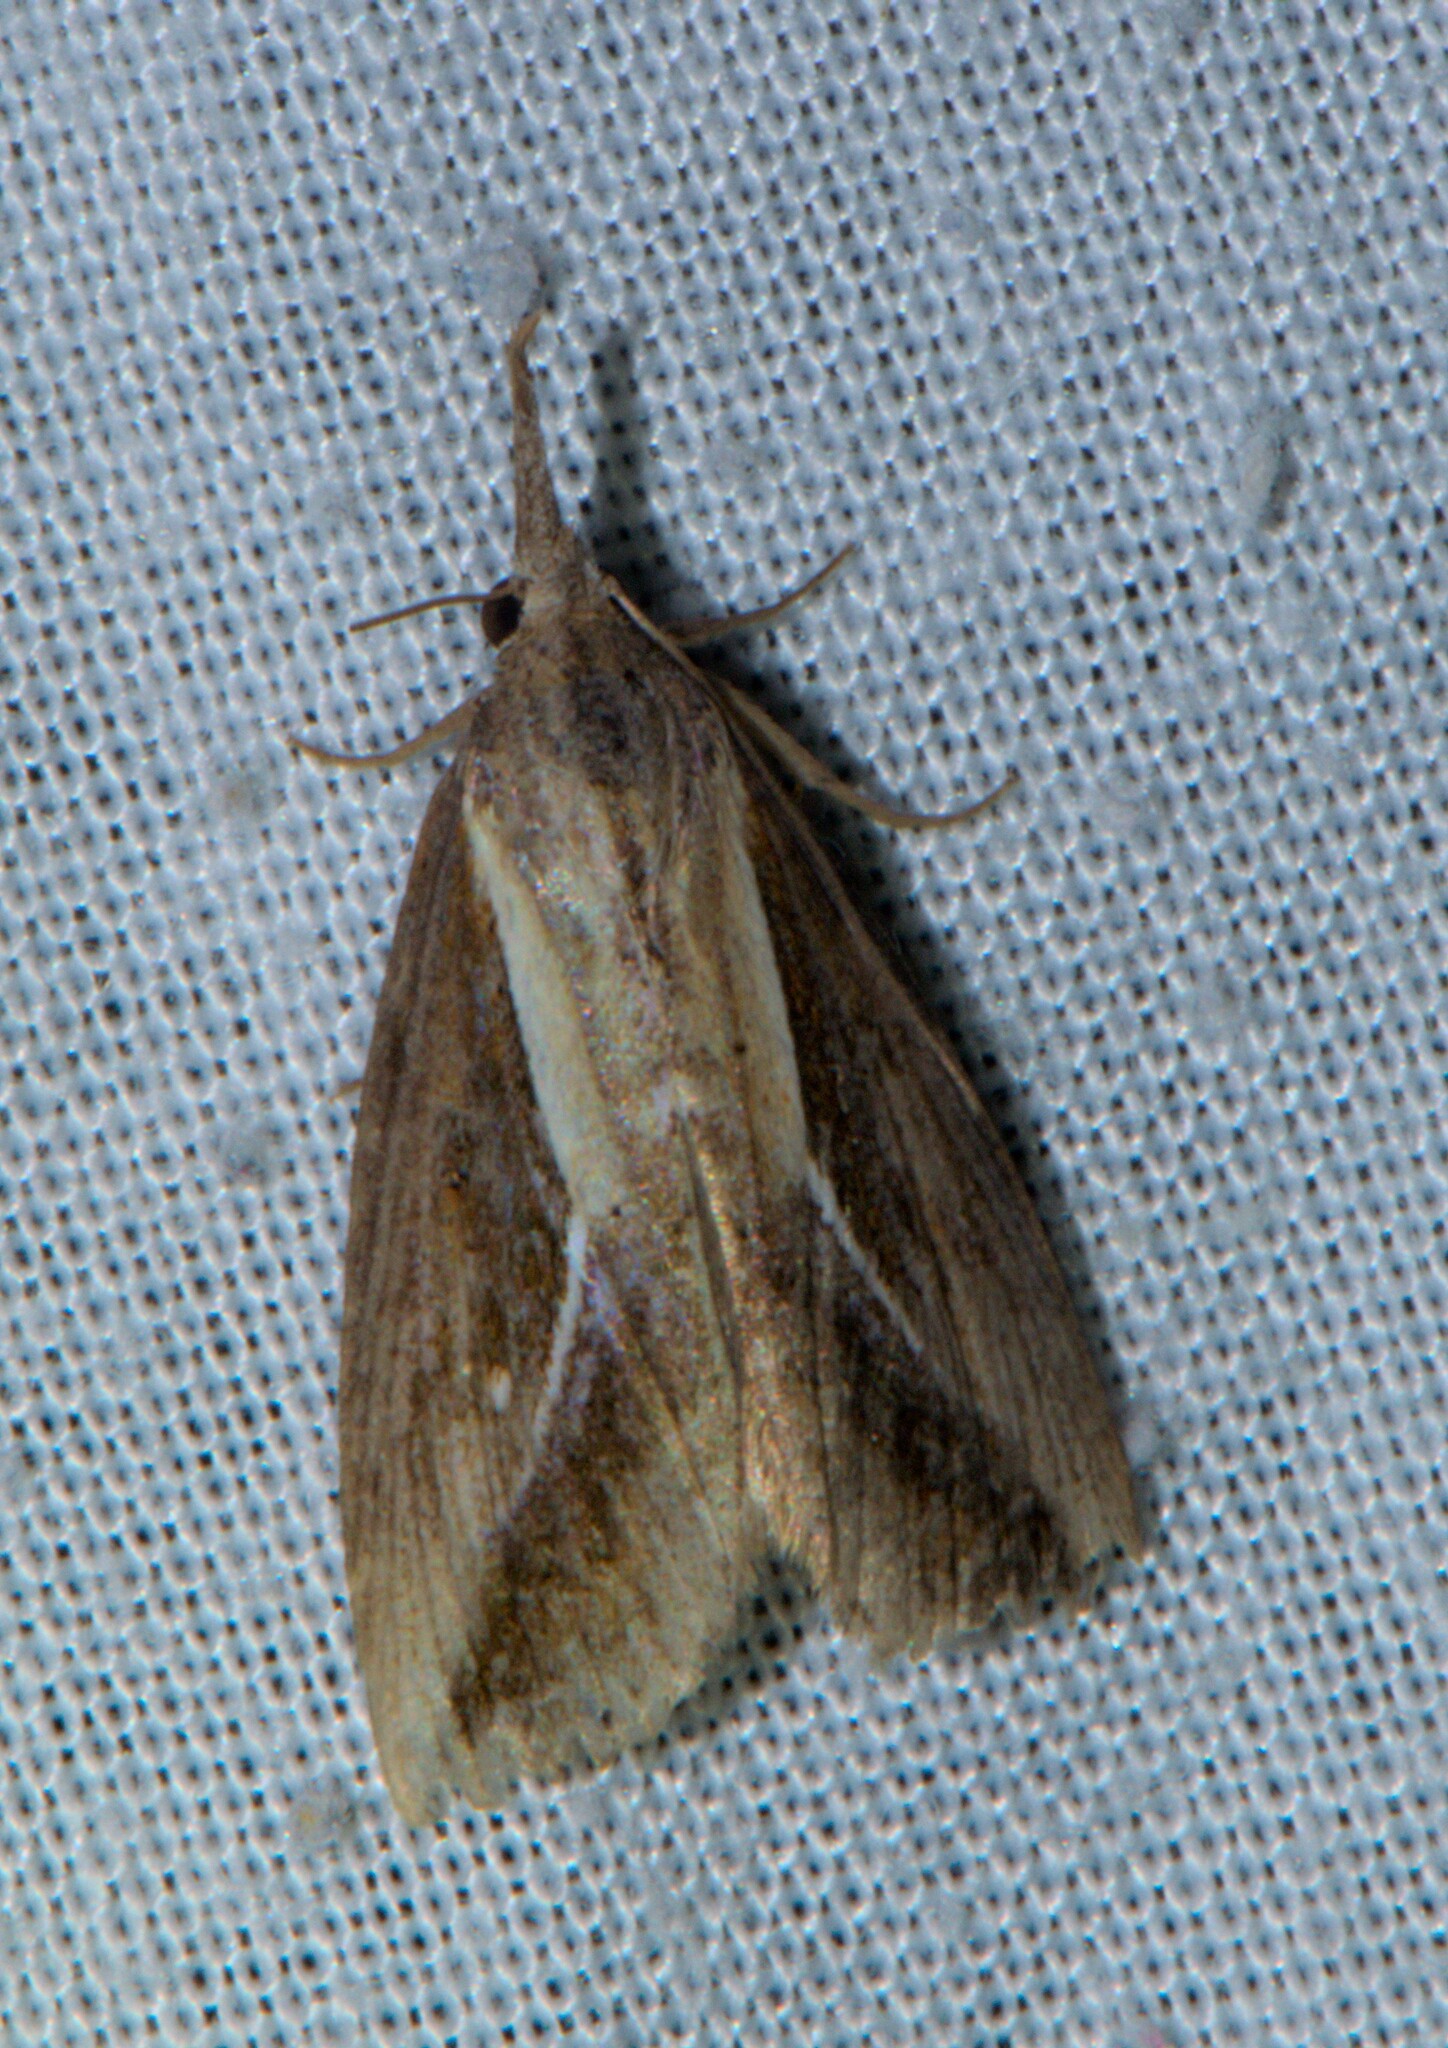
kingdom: Animalia
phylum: Arthropoda
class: Insecta
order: Lepidoptera
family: Erebidae
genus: Rhynchina
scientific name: Rhynchina angulifascia
